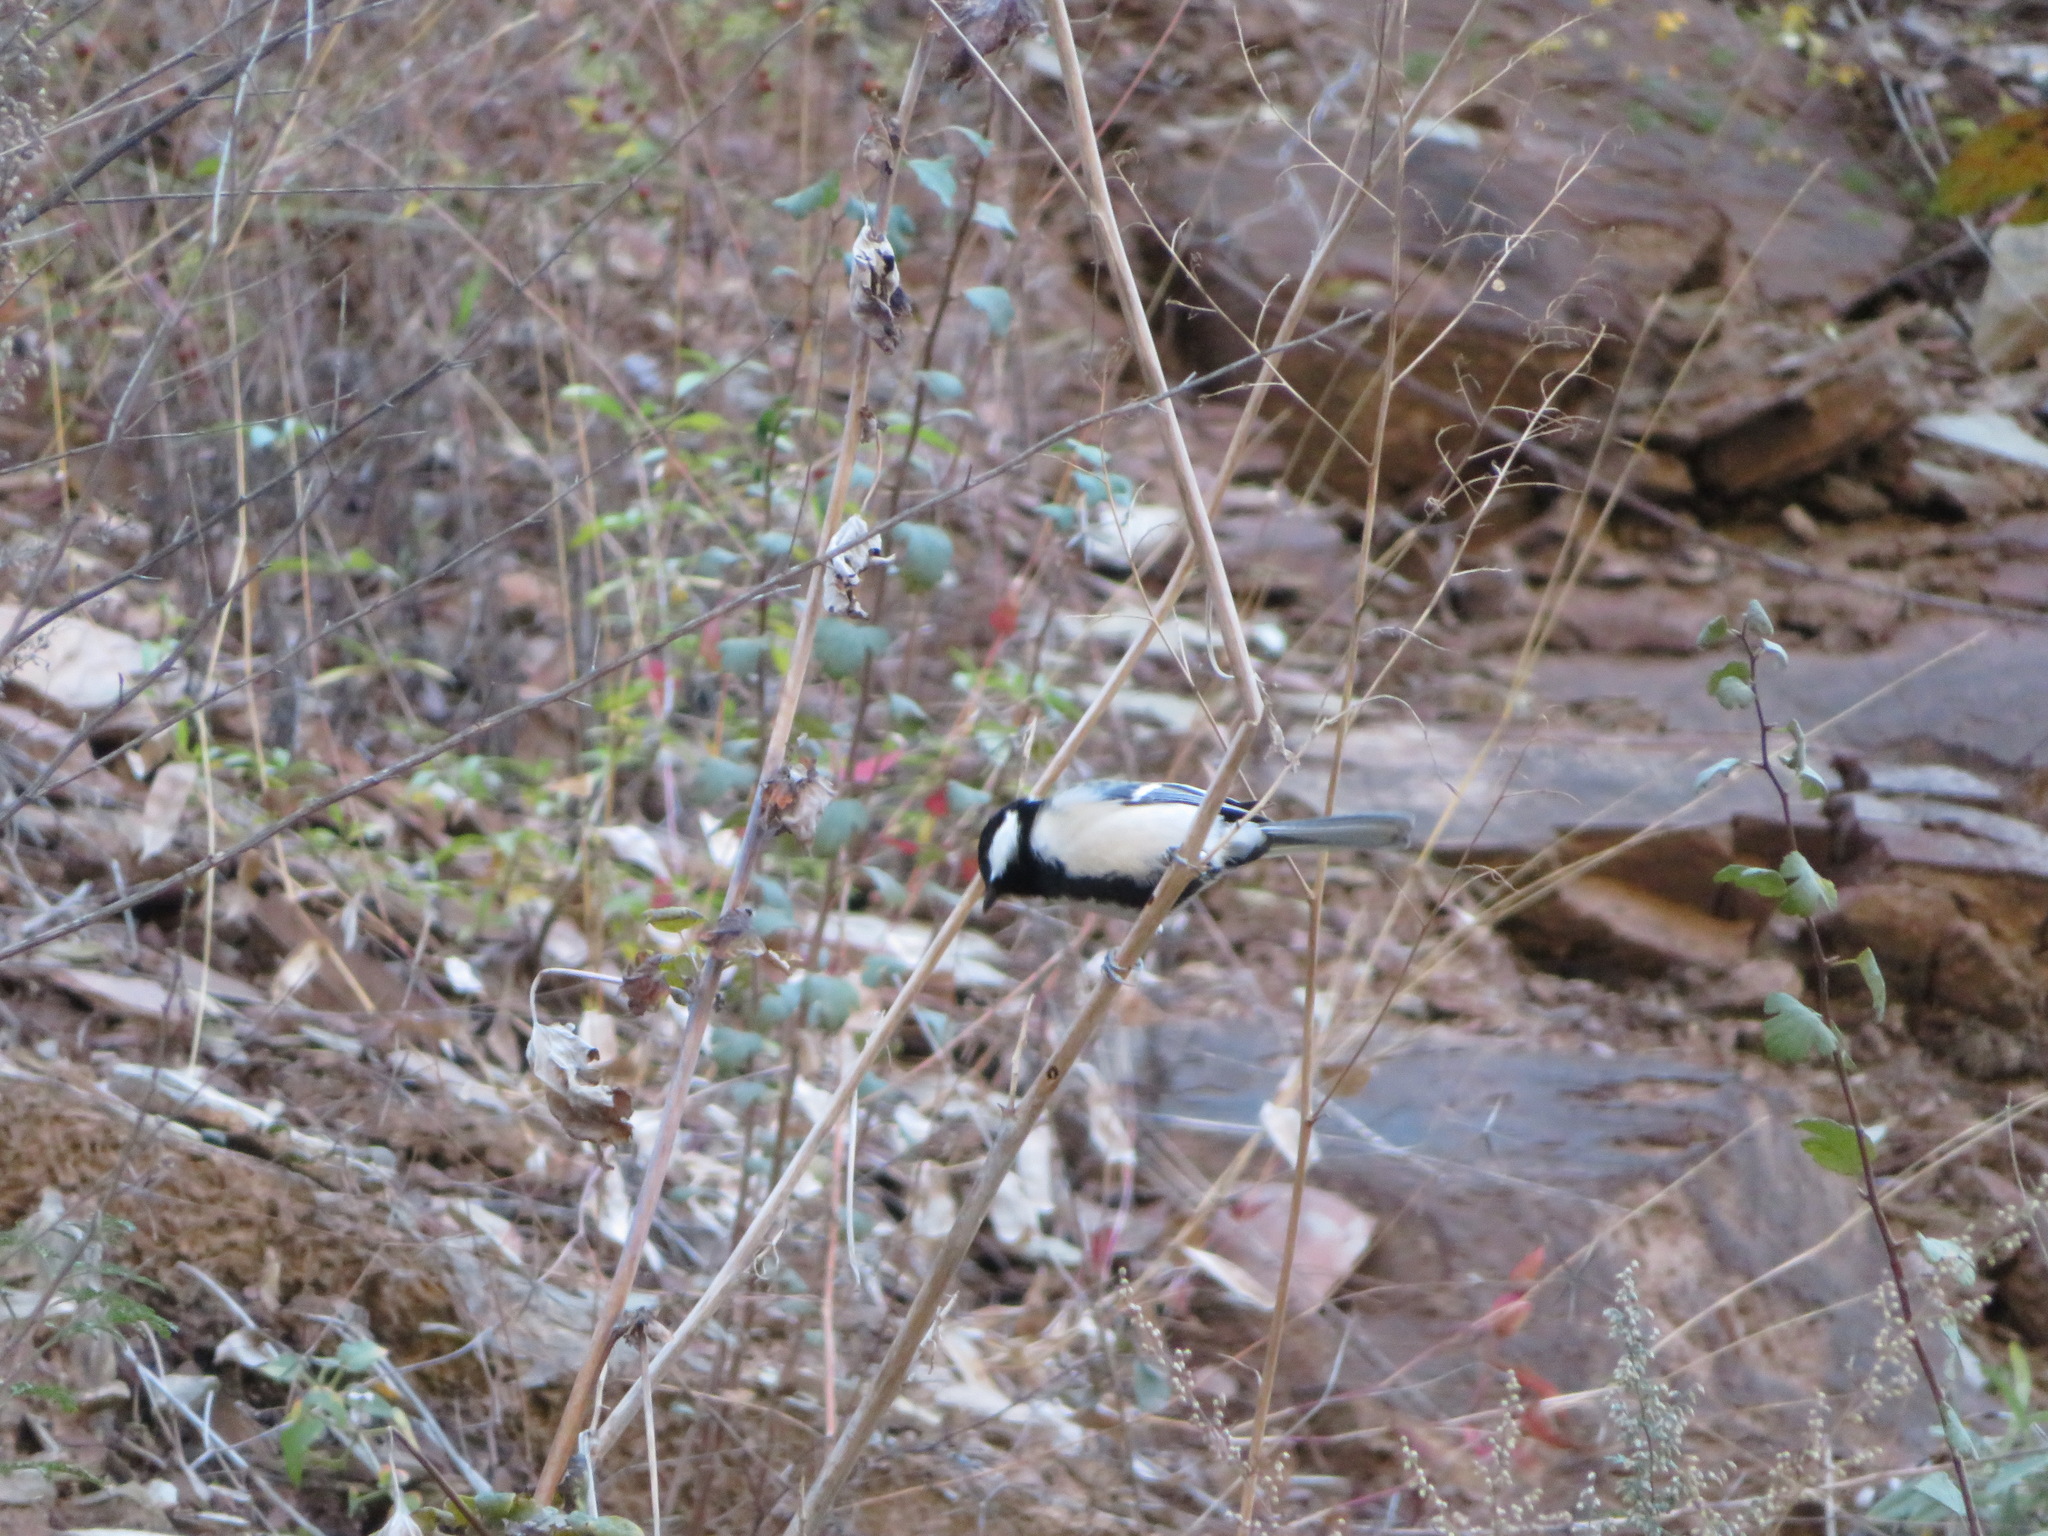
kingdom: Animalia
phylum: Chordata
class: Aves
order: Passeriformes
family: Paridae
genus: Parus
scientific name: Parus minor
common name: Japanese tit
